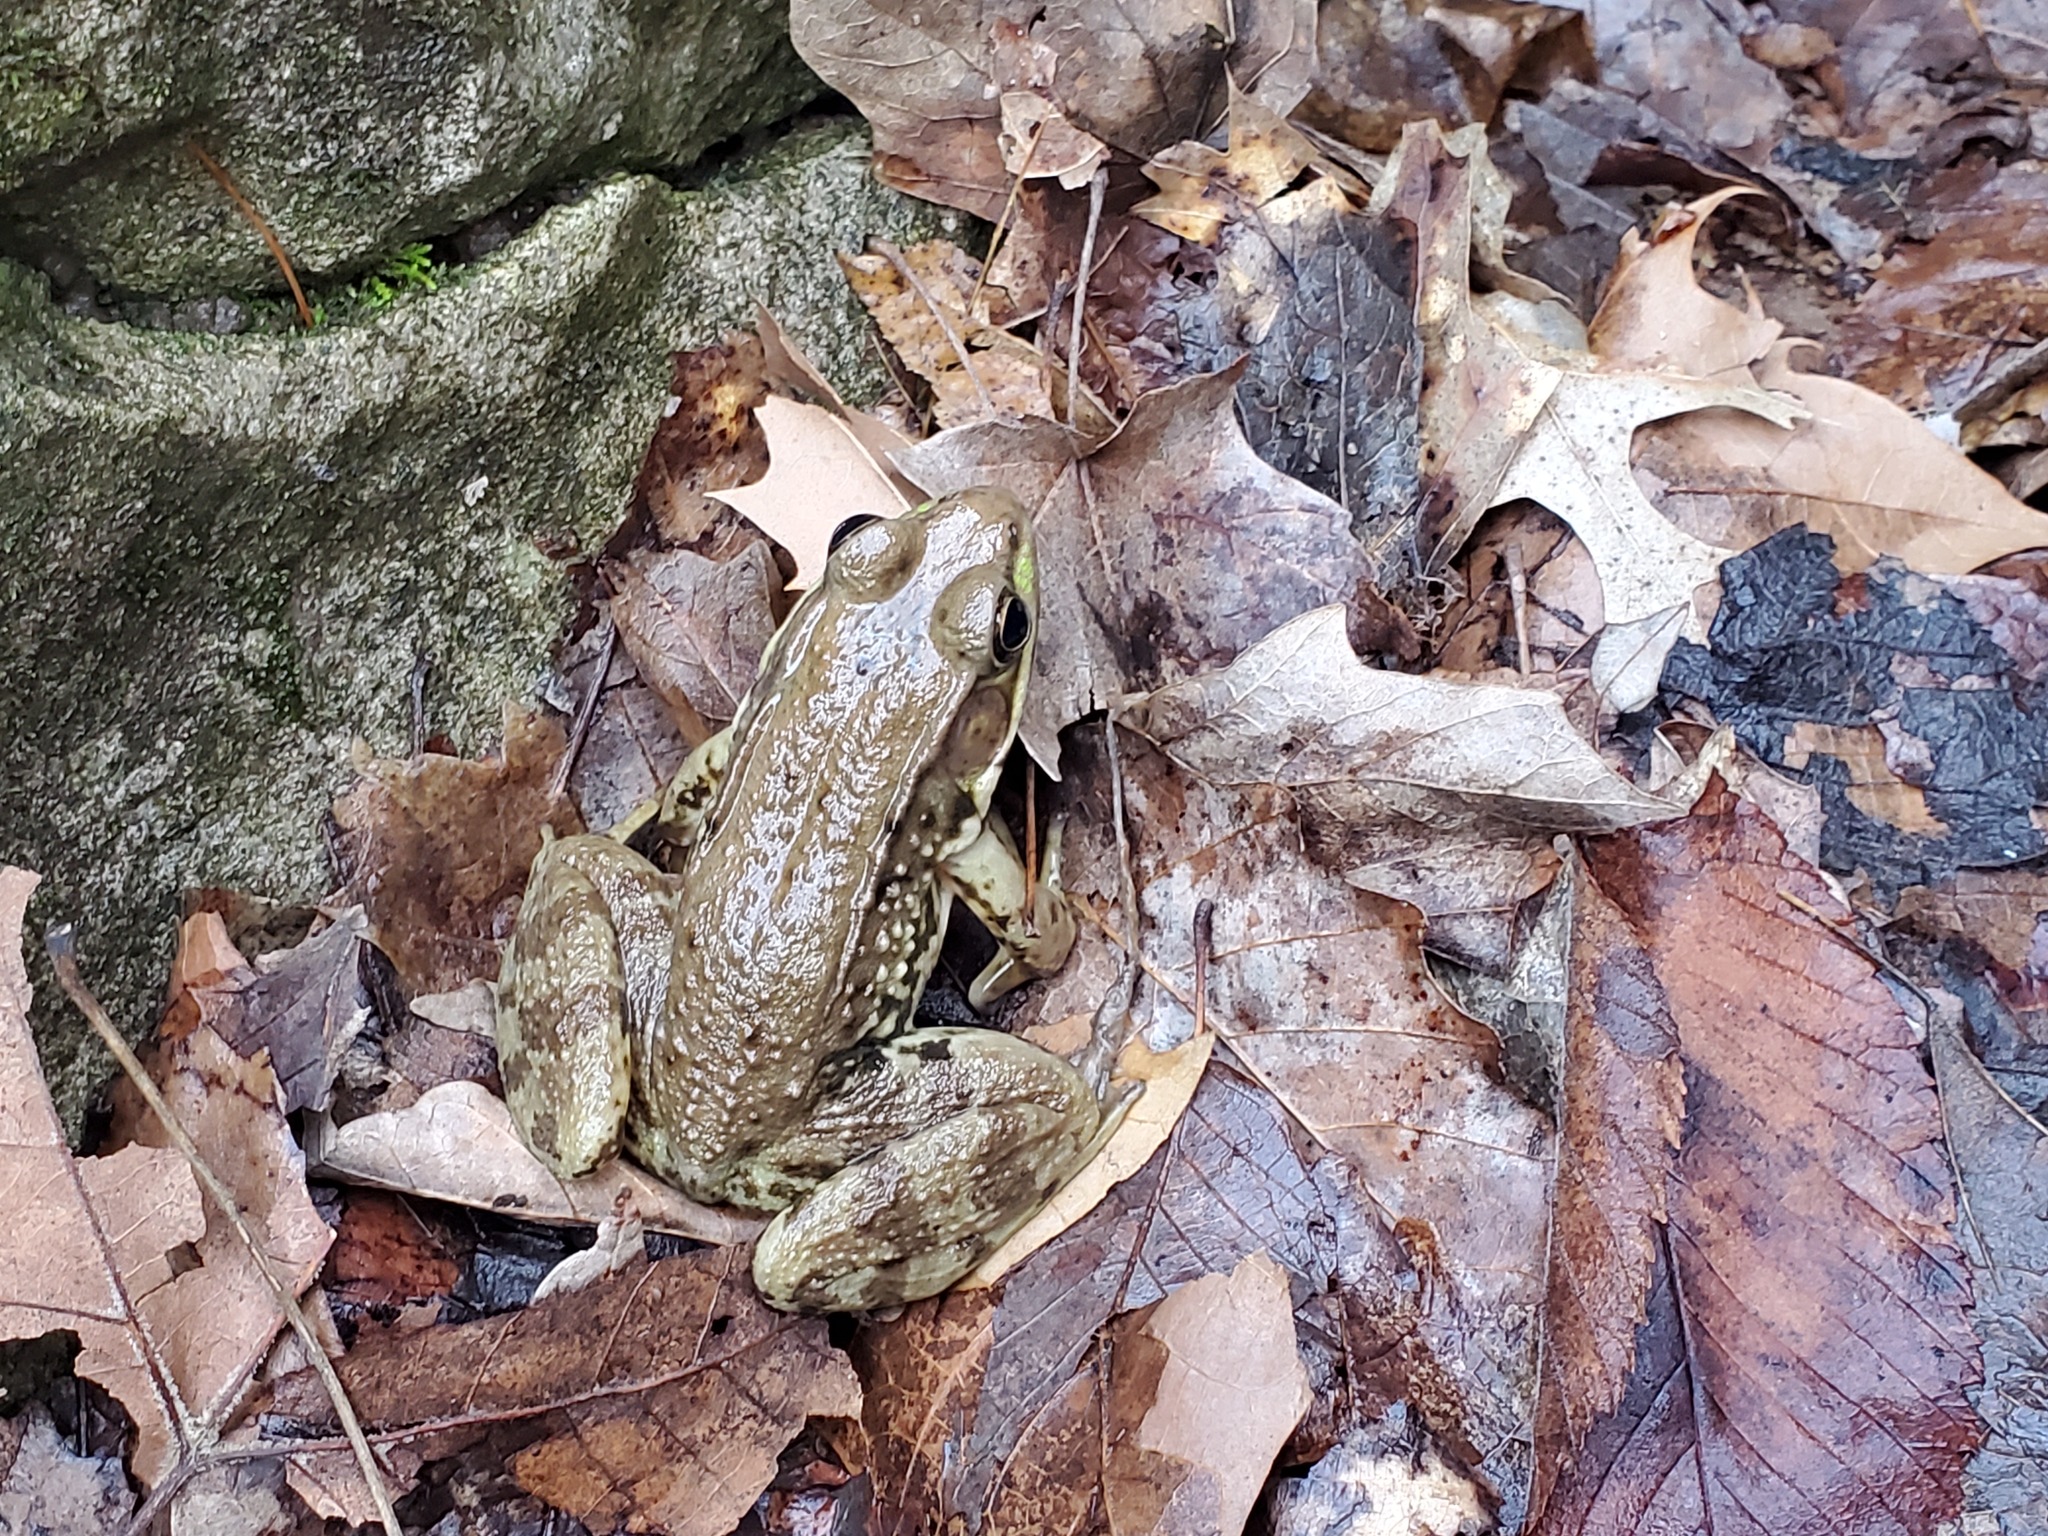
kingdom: Animalia
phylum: Chordata
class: Amphibia
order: Anura
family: Ranidae
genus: Lithobates
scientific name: Lithobates clamitans
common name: Green frog
